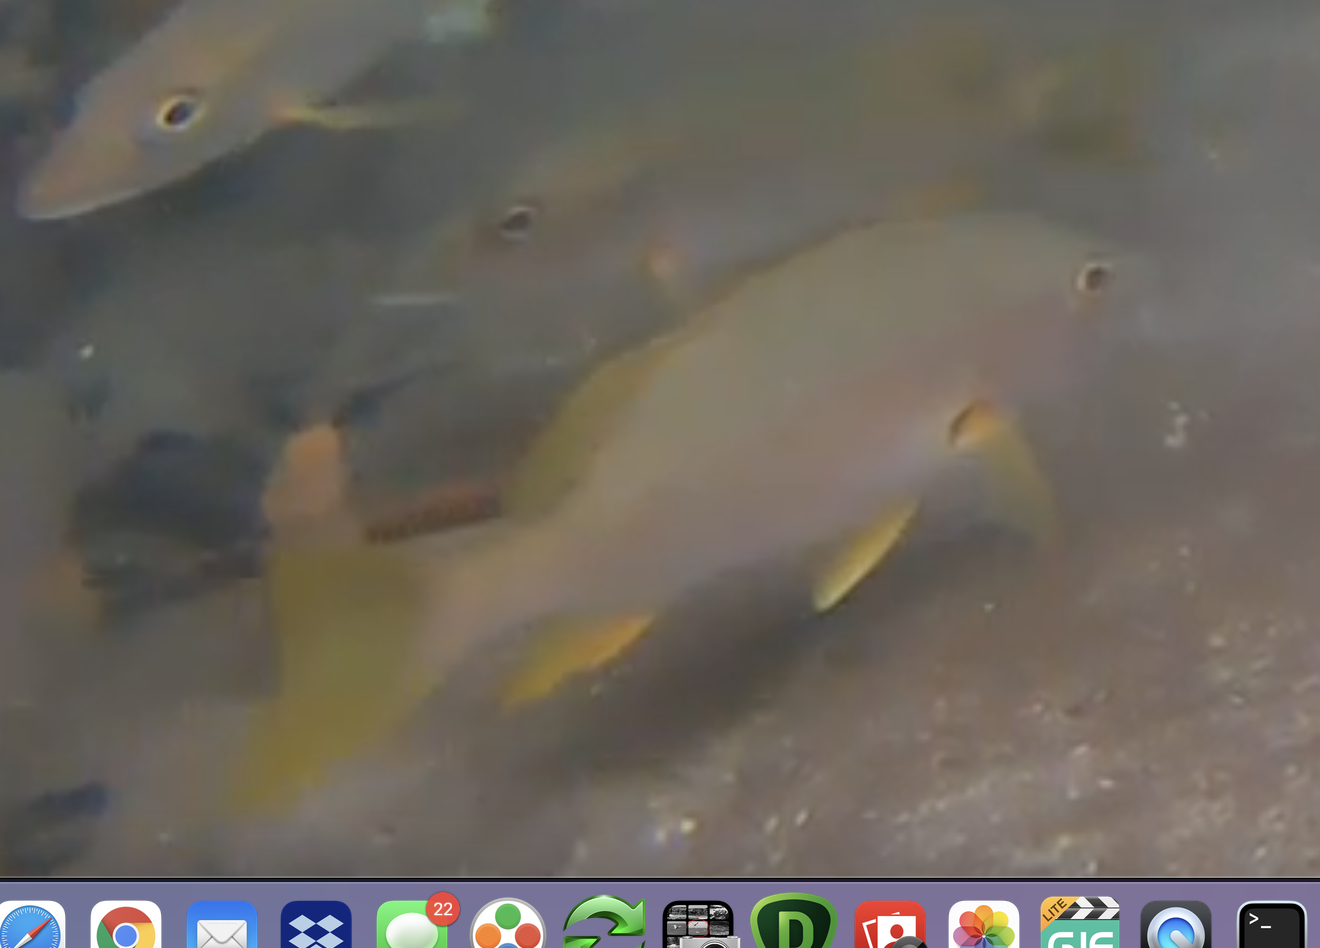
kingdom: Animalia
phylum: Chordata
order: Perciformes
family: Lutjanidae
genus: Lutjanus
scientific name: Lutjanus apodus
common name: Schoolmaster
